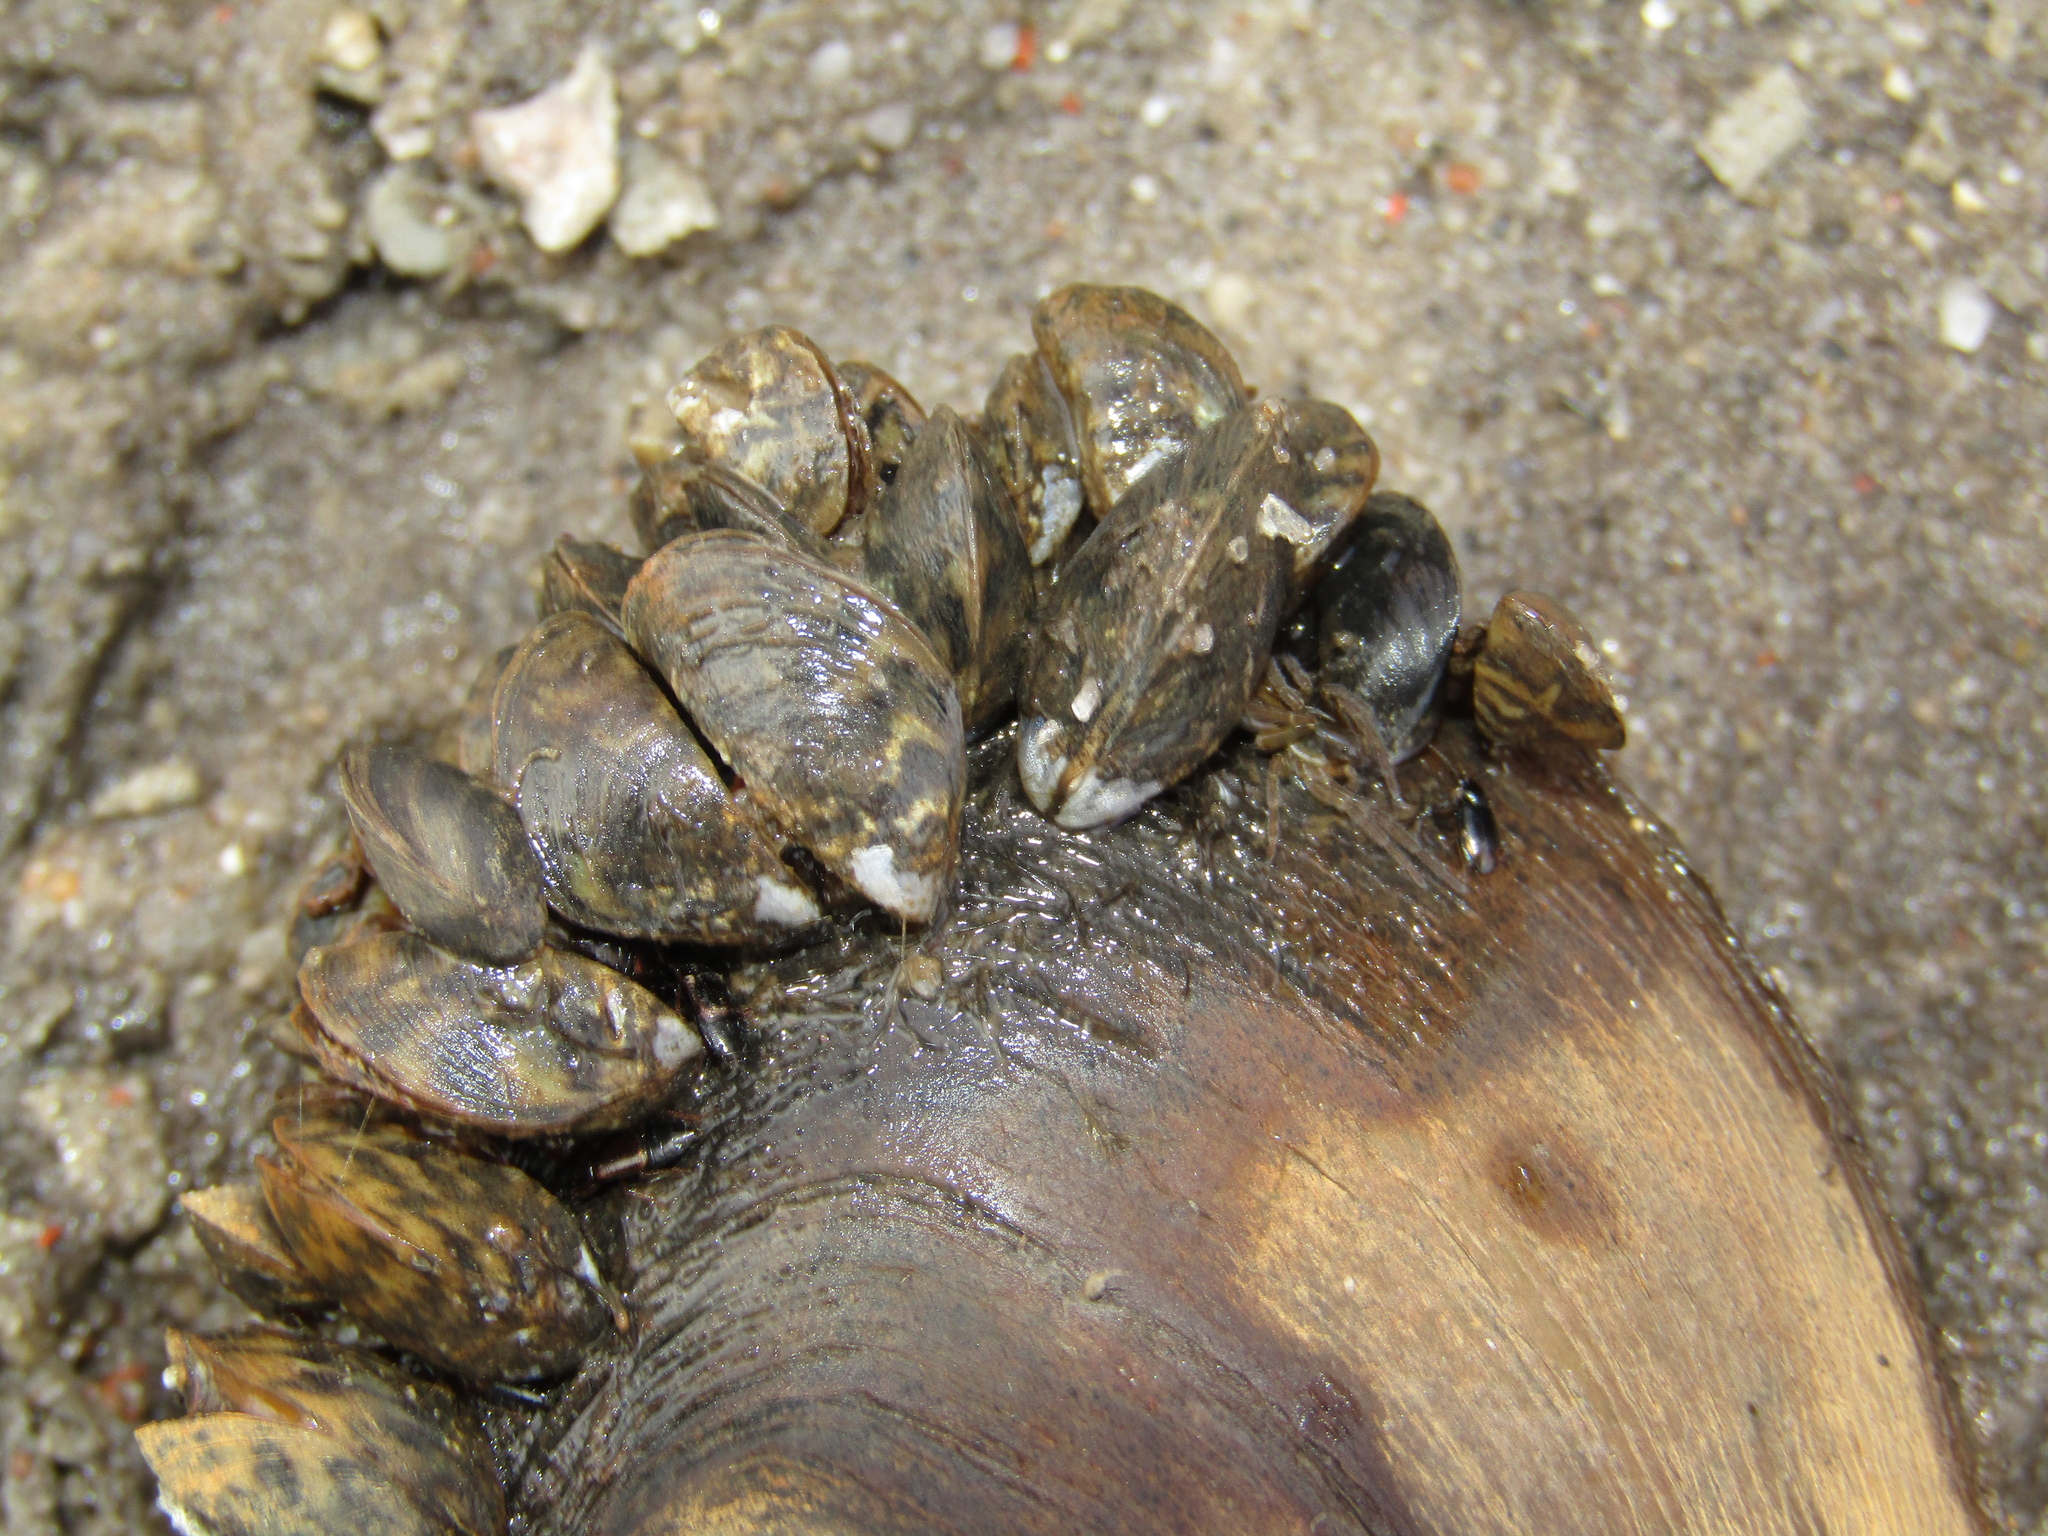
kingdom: Animalia
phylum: Mollusca
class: Bivalvia
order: Myida
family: Dreissenidae
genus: Dreissena
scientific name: Dreissena polymorpha
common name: Zebra mussel
